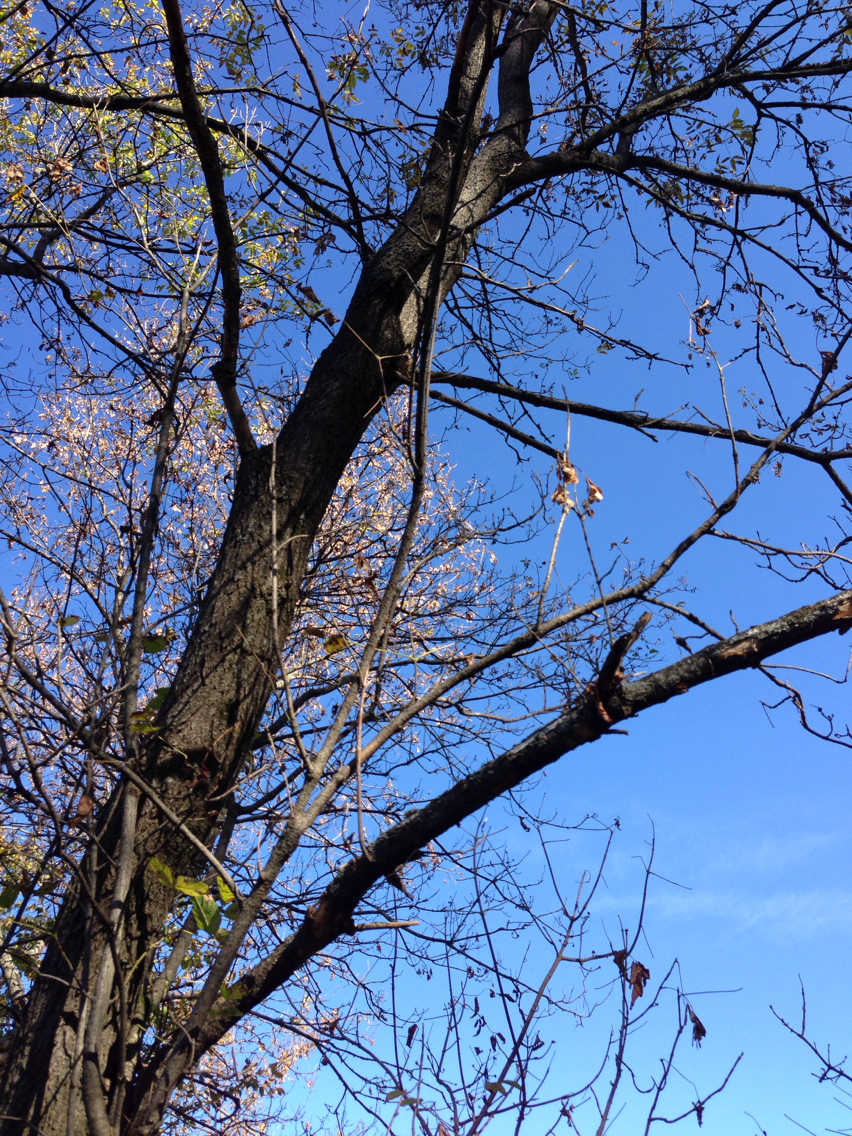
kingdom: Plantae
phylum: Tracheophyta
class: Magnoliopsida
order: Sapindales
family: Sapindaceae
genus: Acer
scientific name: Acer negundo
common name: Ashleaf maple
